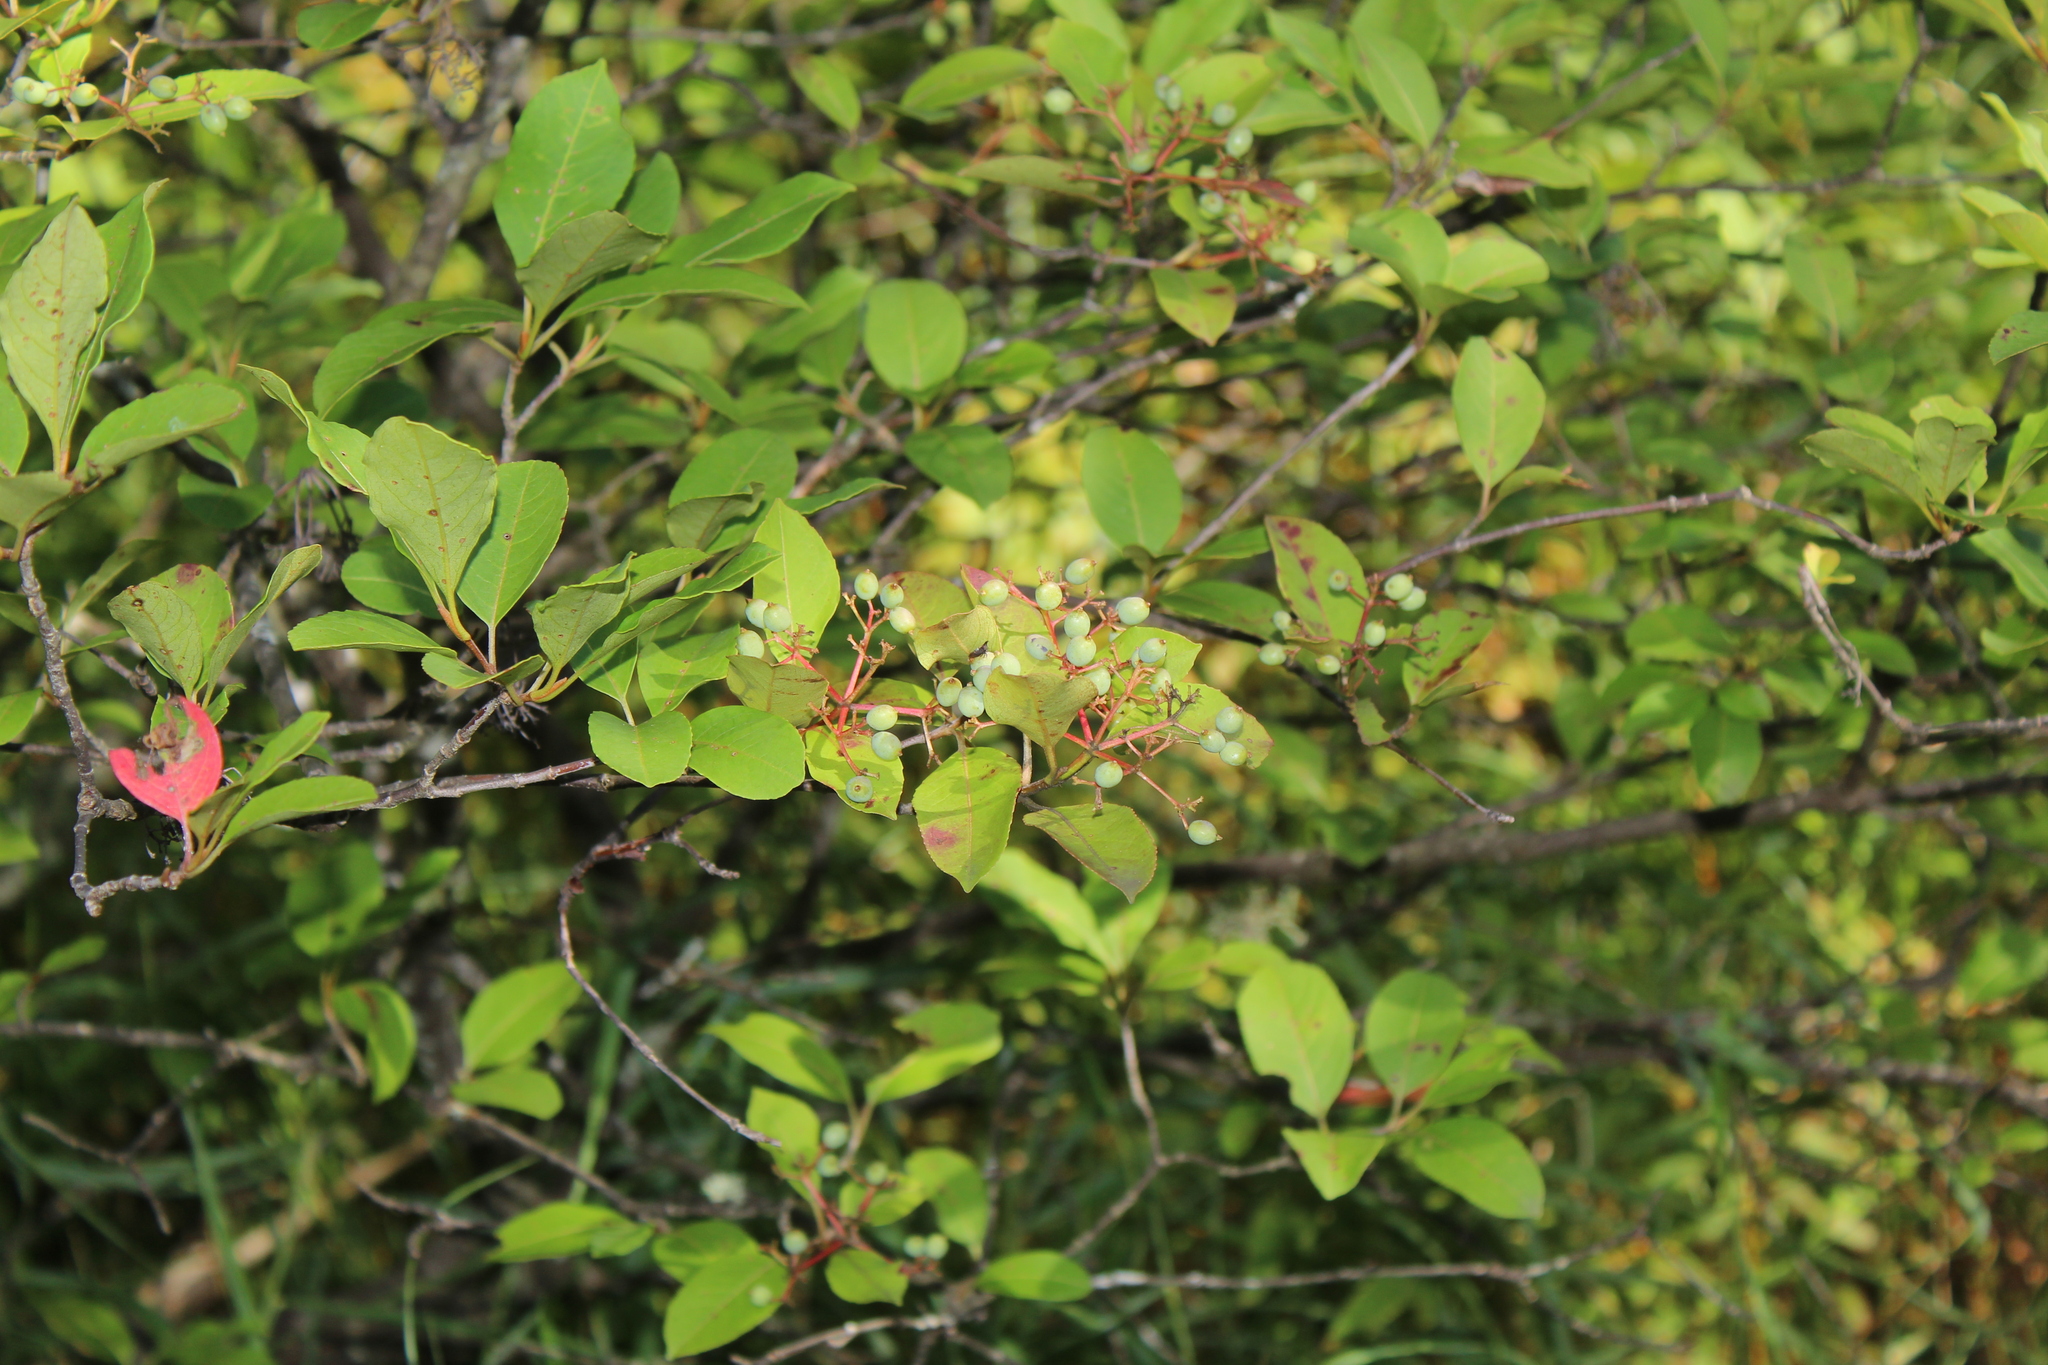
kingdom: Plantae
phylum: Tracheophyta
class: Magnoliopsida
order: Dipsacales
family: Viburnaceae
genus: Viburnum
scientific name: Viburnum cassinoides
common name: Swamp haw
